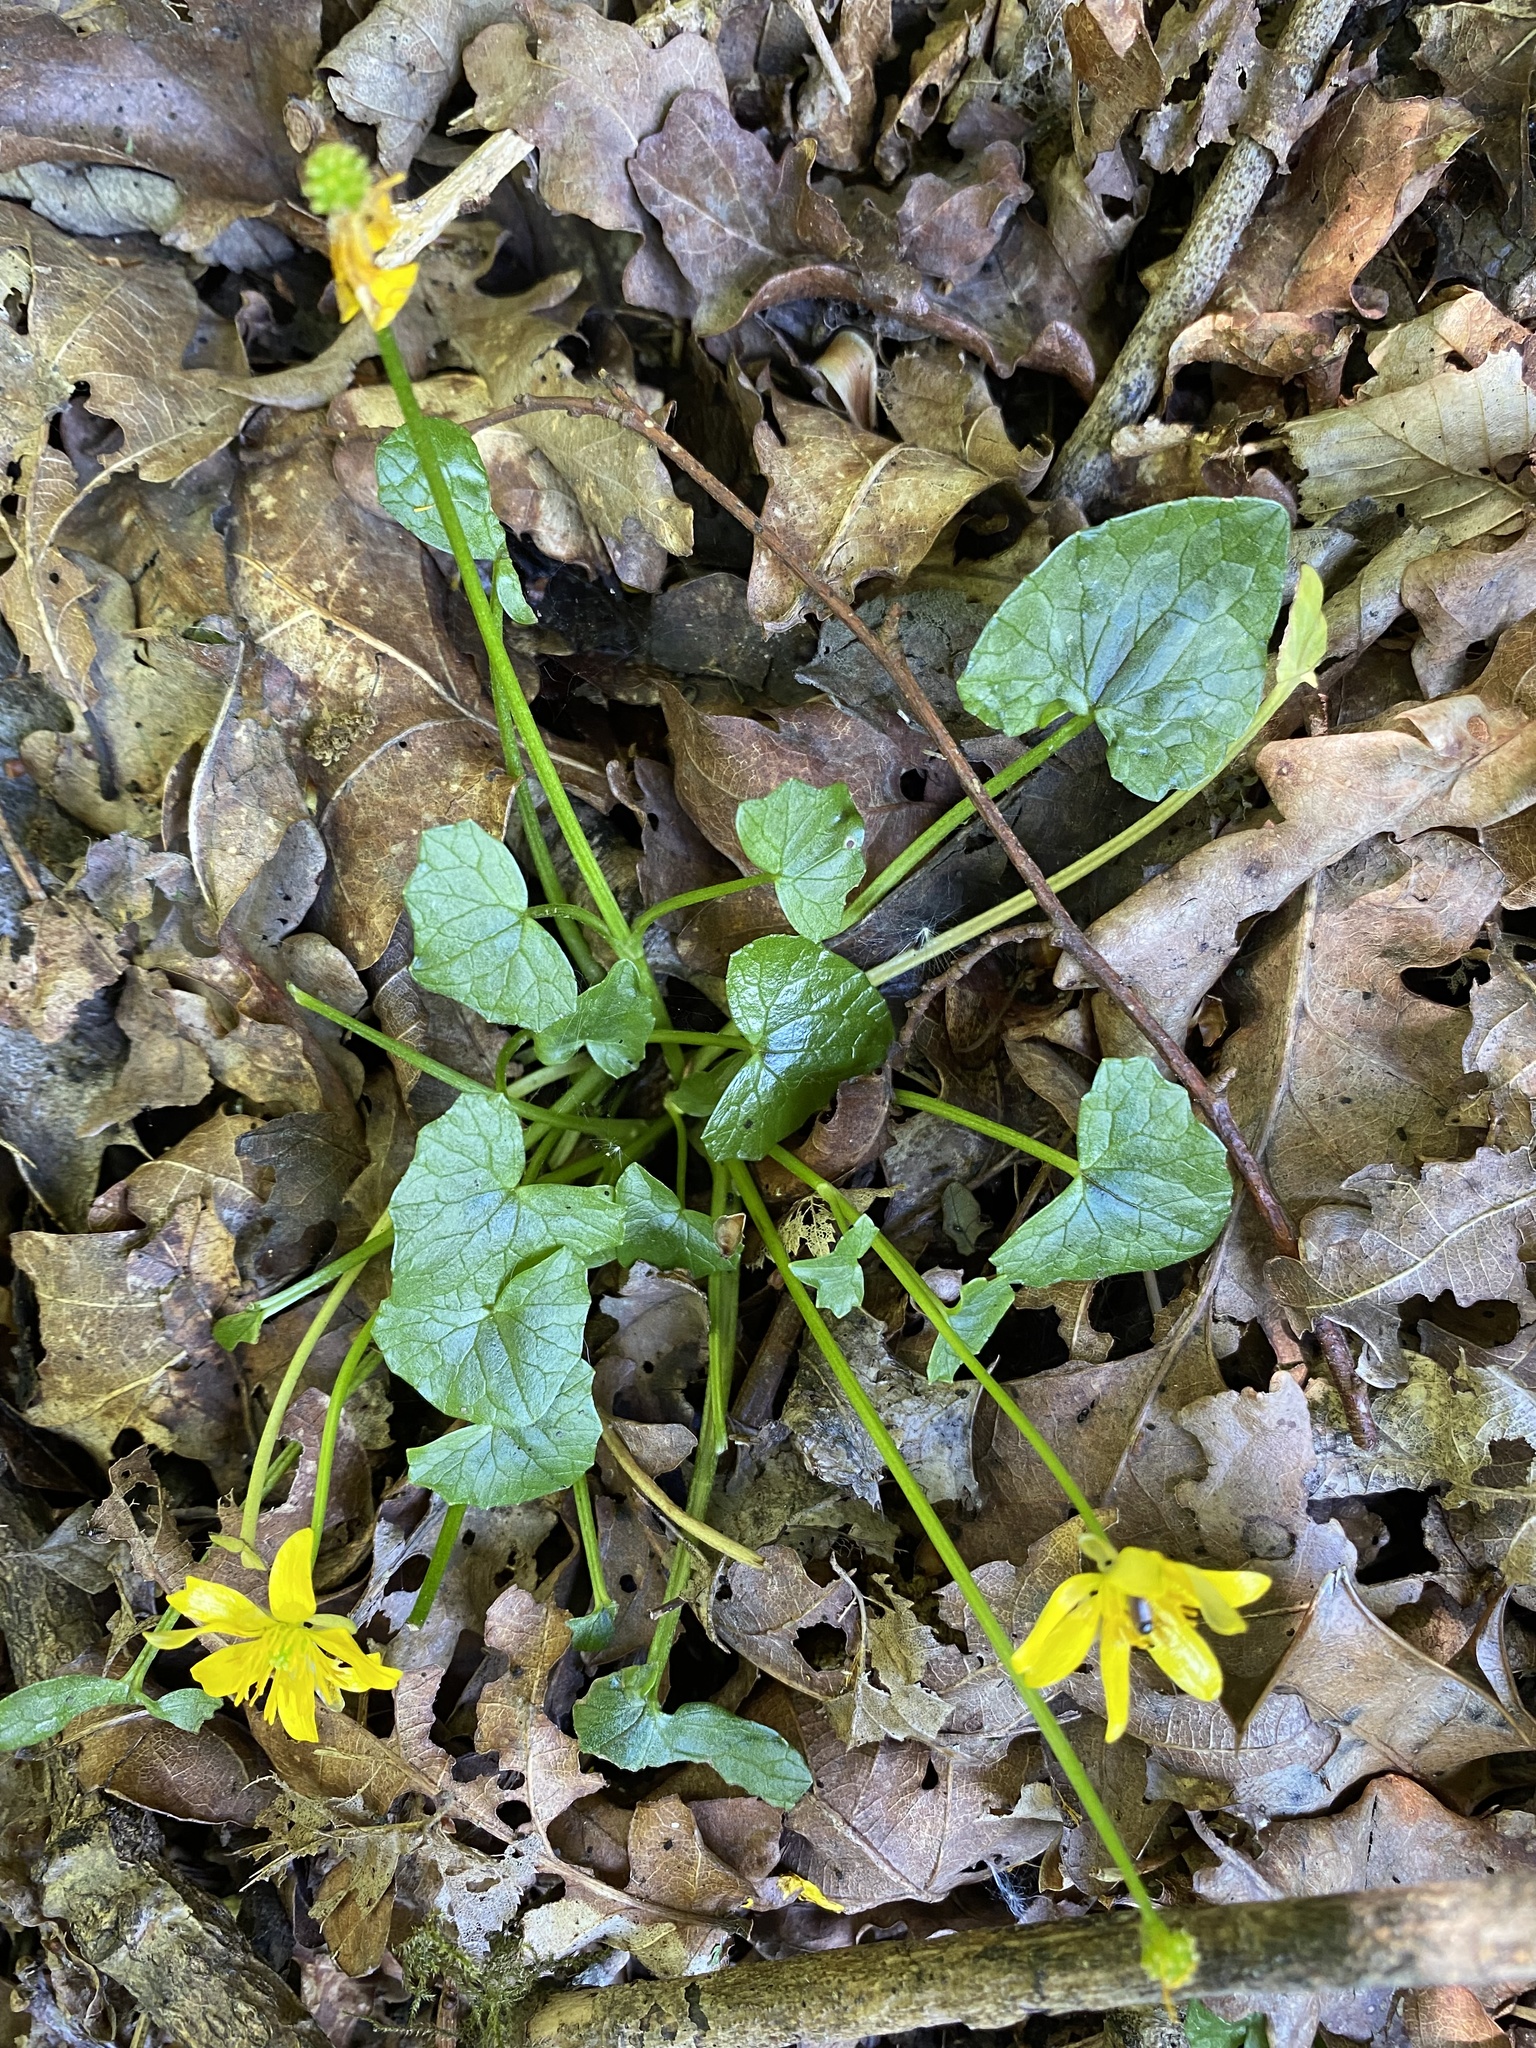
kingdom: Plantae
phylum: Tracheophyta
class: Magnoliopsida
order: Ranunculales
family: Ranunculaceae
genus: Ficaria
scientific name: Ficaria verna
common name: Lesser celandine
